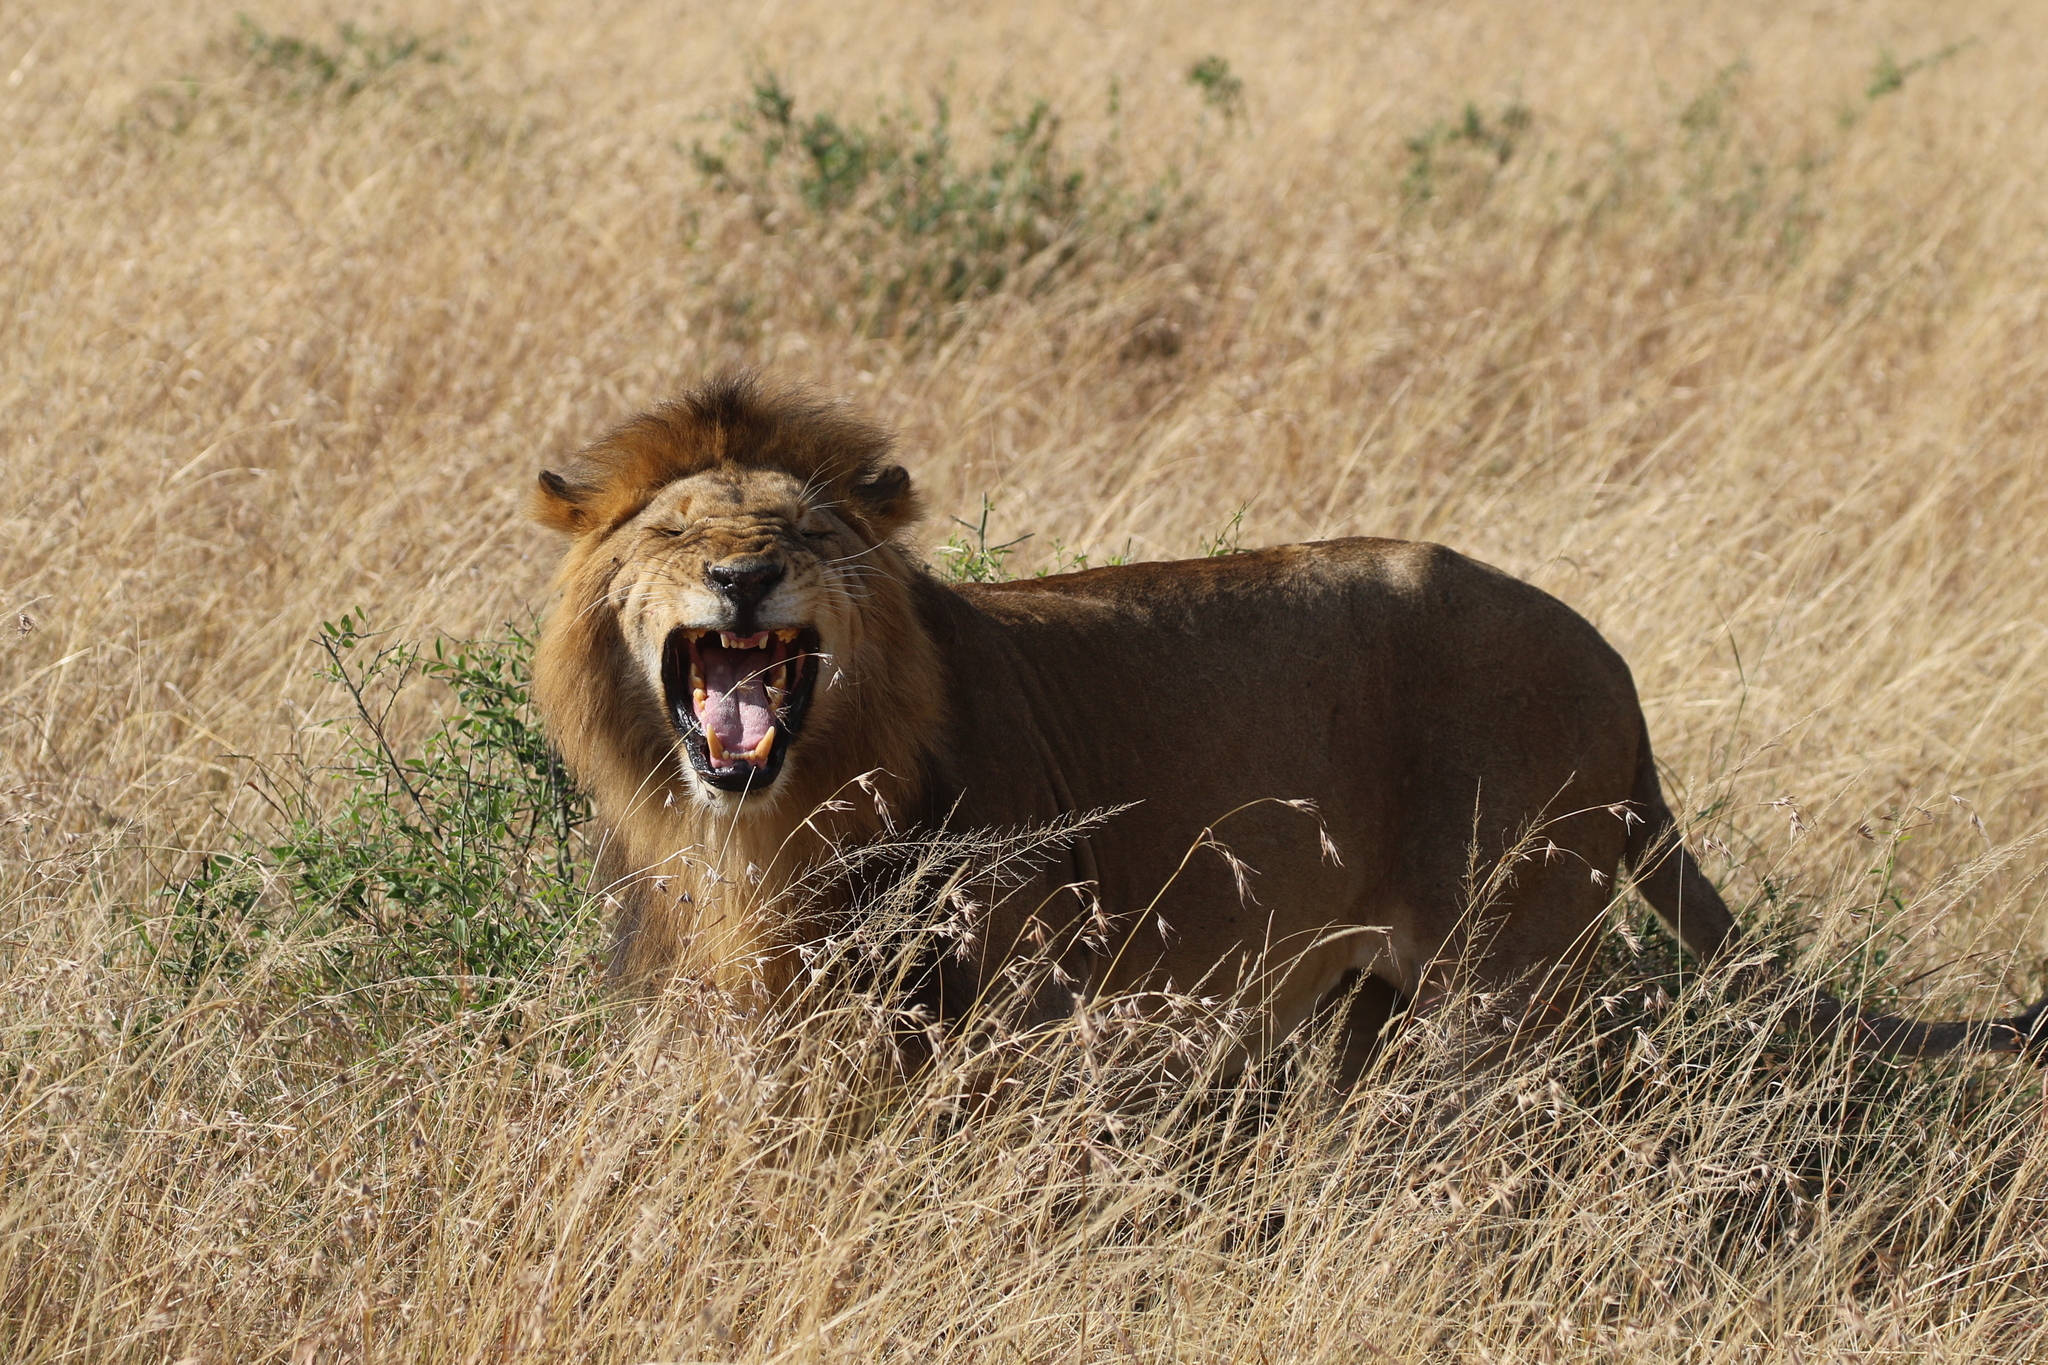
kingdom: Animalia
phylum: Chordata
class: Mammalia
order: Carnivora
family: Felidae
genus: Panthera
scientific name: Panthera leo
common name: Lion
